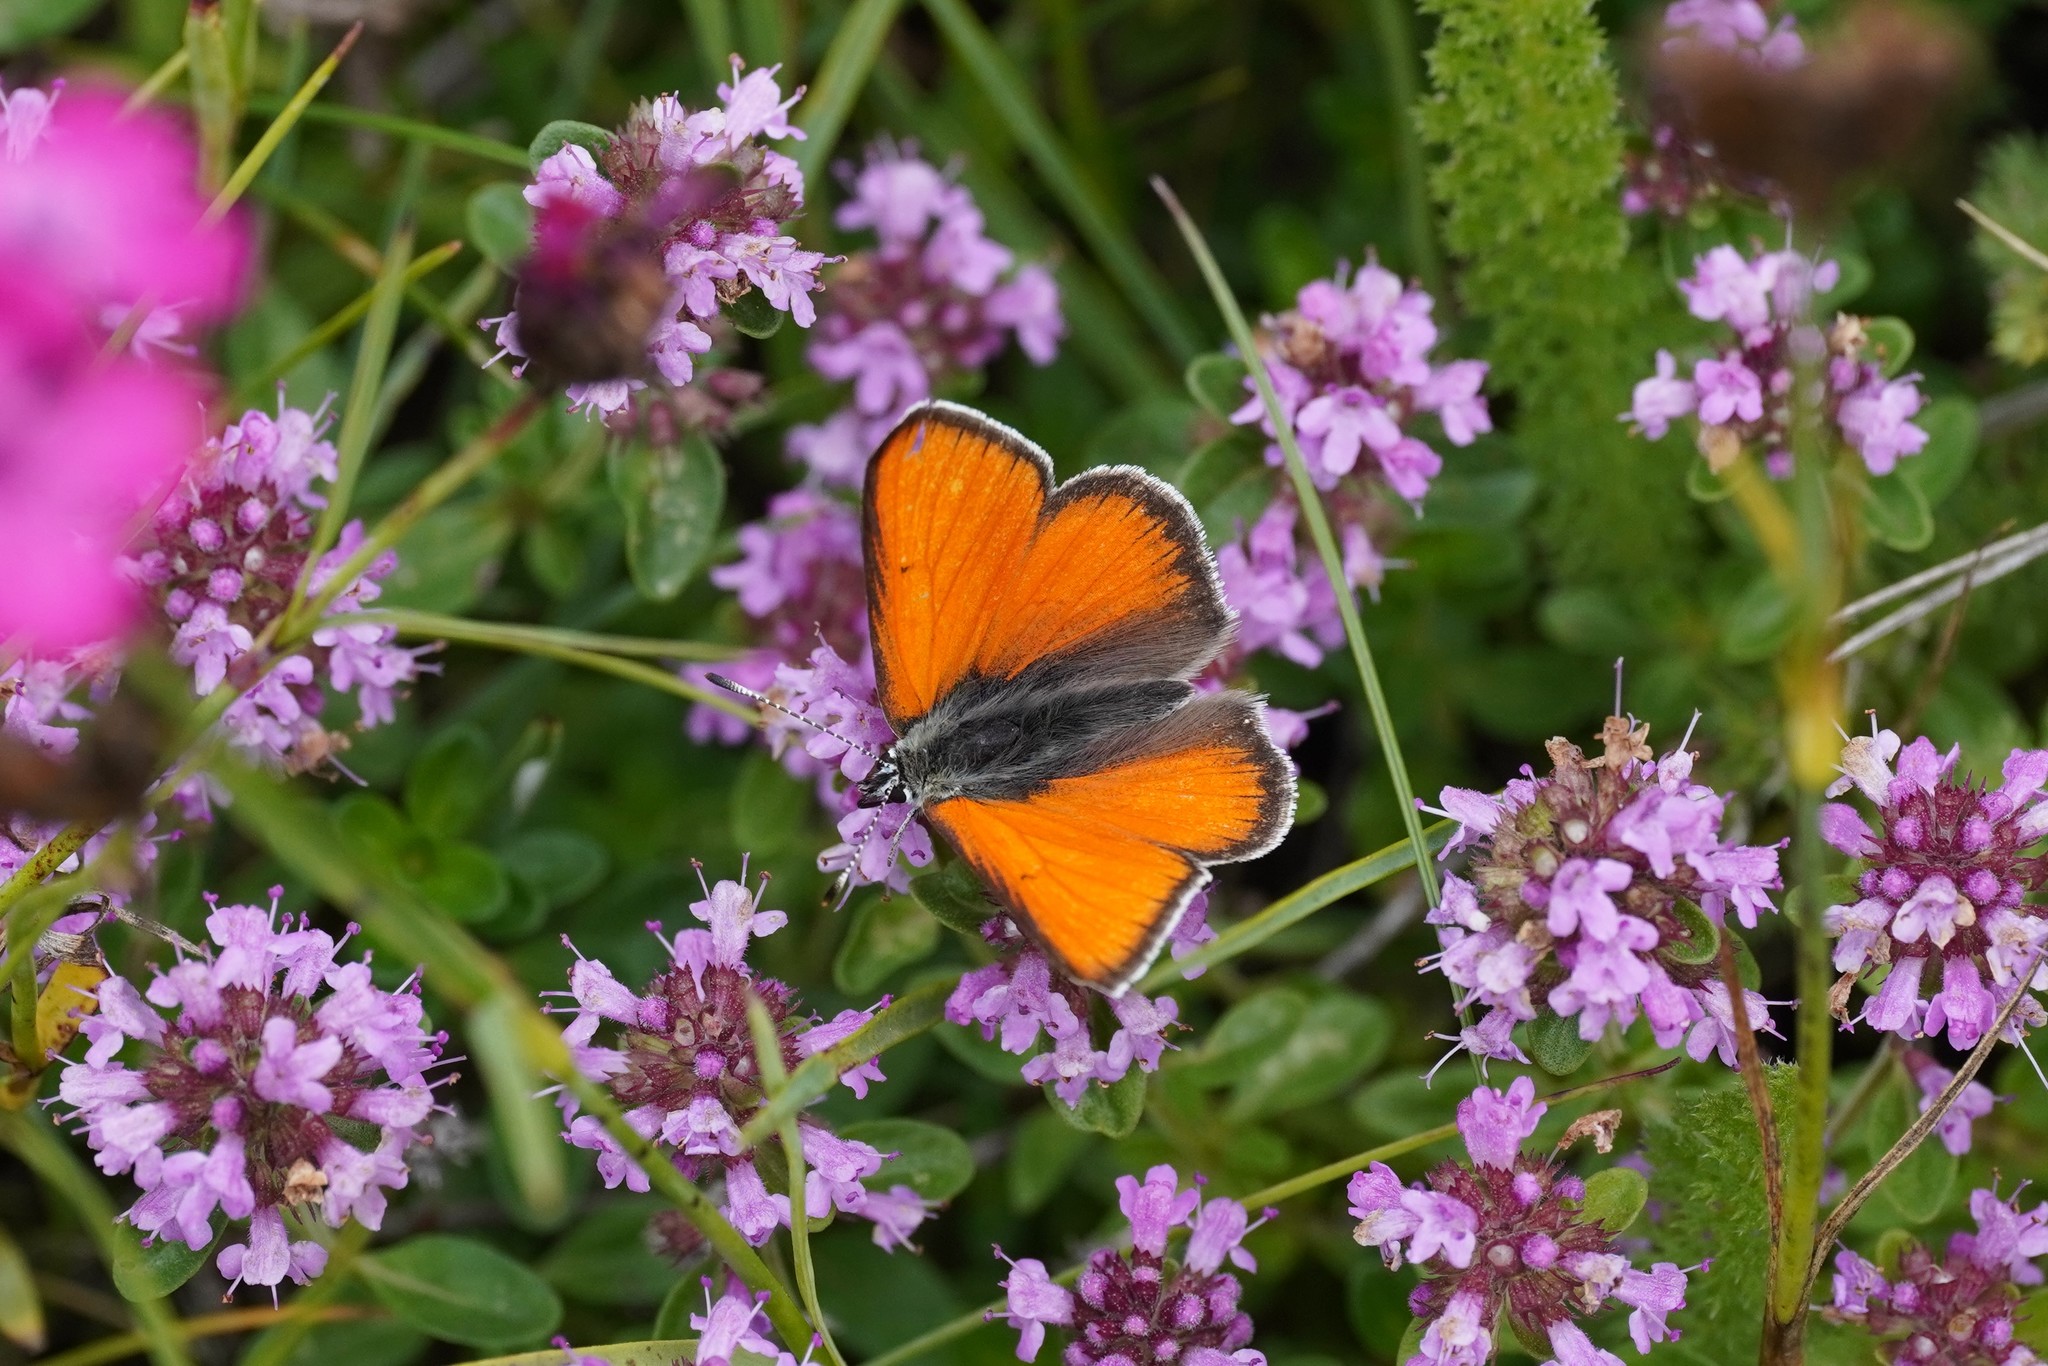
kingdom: Animalia
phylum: Arthropoda
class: Insecta
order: Lepidoptera
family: Lycaenidae
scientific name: Lycaenidae
